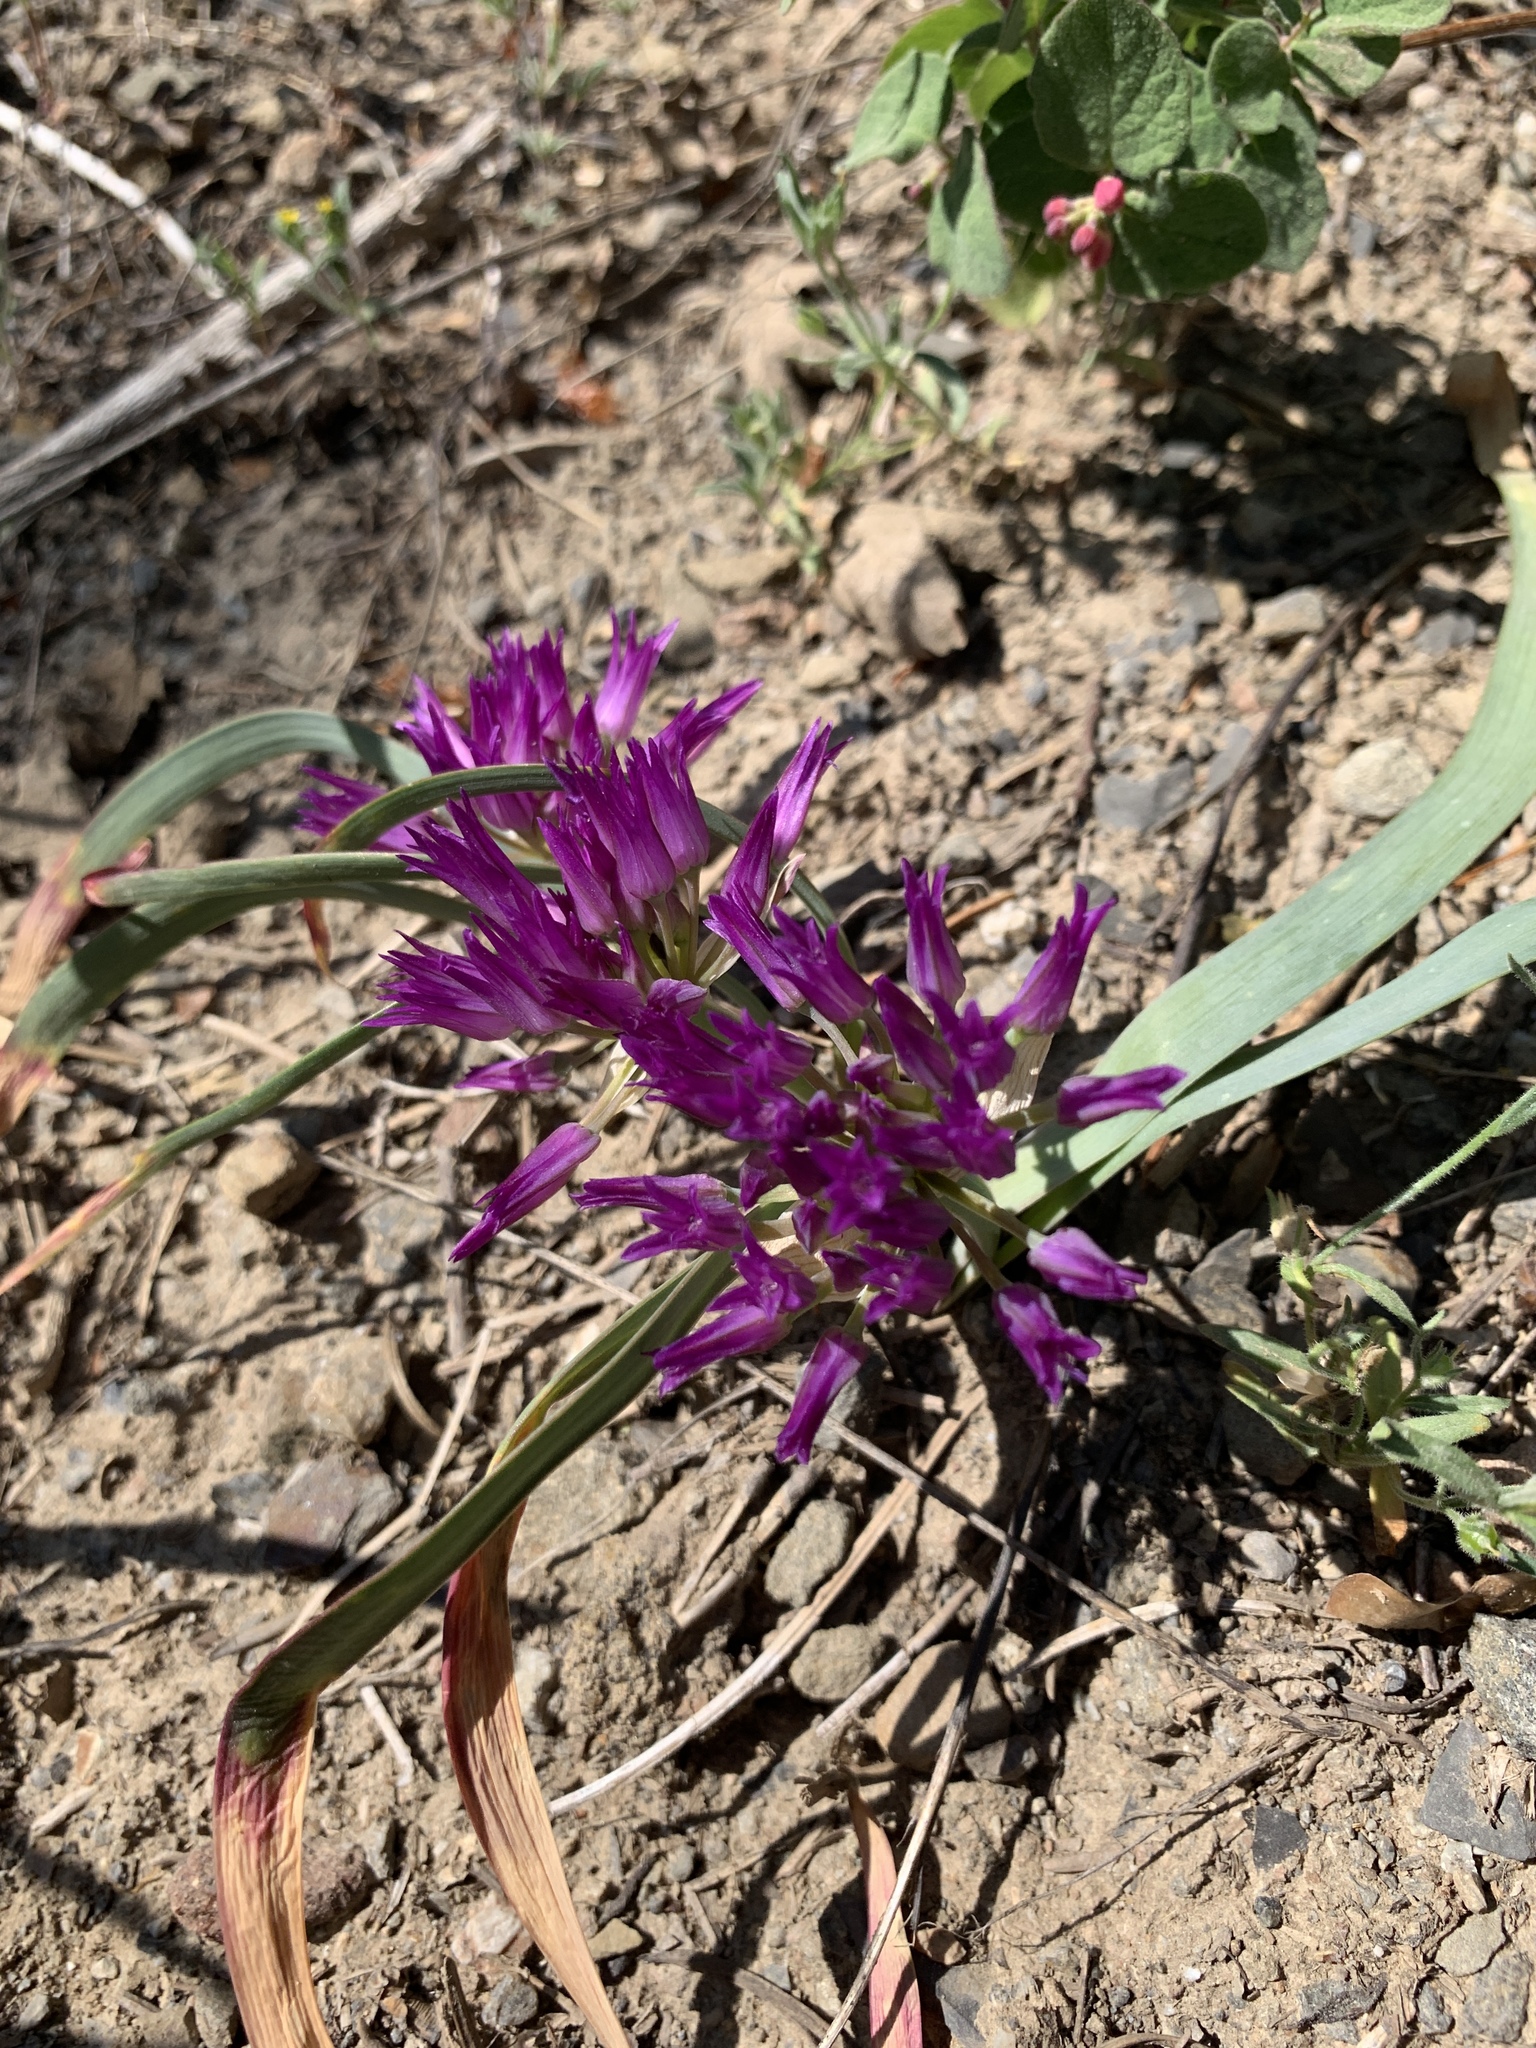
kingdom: Plantae
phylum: Tracheophyta
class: Liliopsida
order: Asparagales
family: Amaryllidaceae
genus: Allium
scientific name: Allium falcifolium
